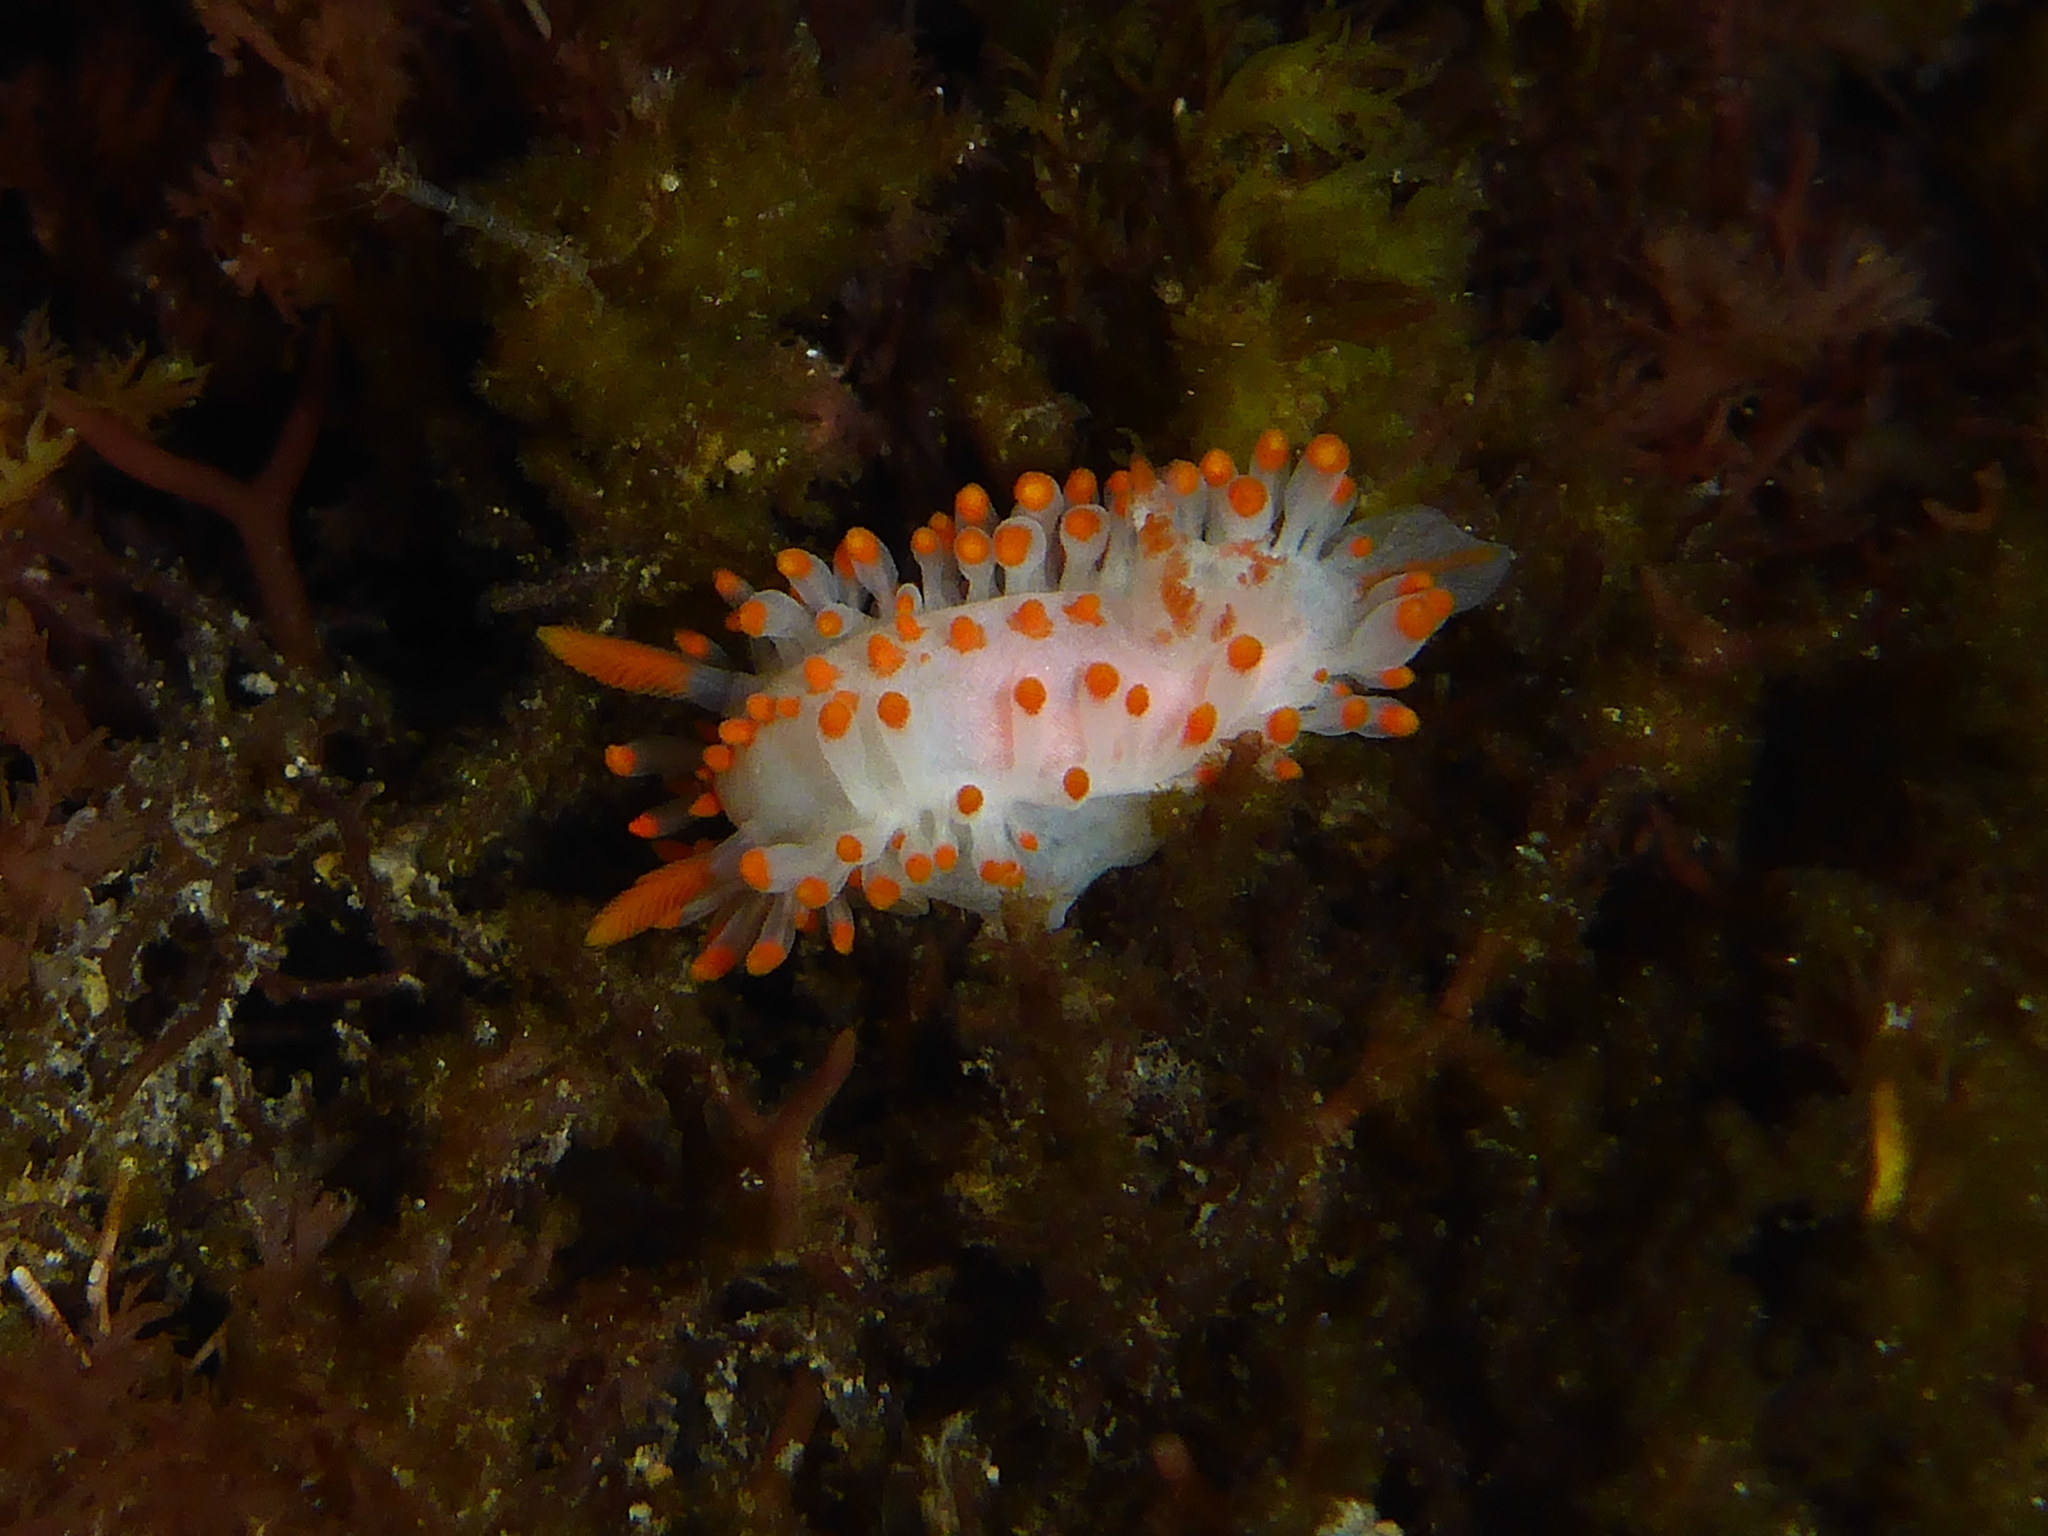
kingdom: Animalia
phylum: Mollusca
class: Gastropoda
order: Nudibranchia
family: Polyceridae
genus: Limacia
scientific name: Limacia mcdonaldi
